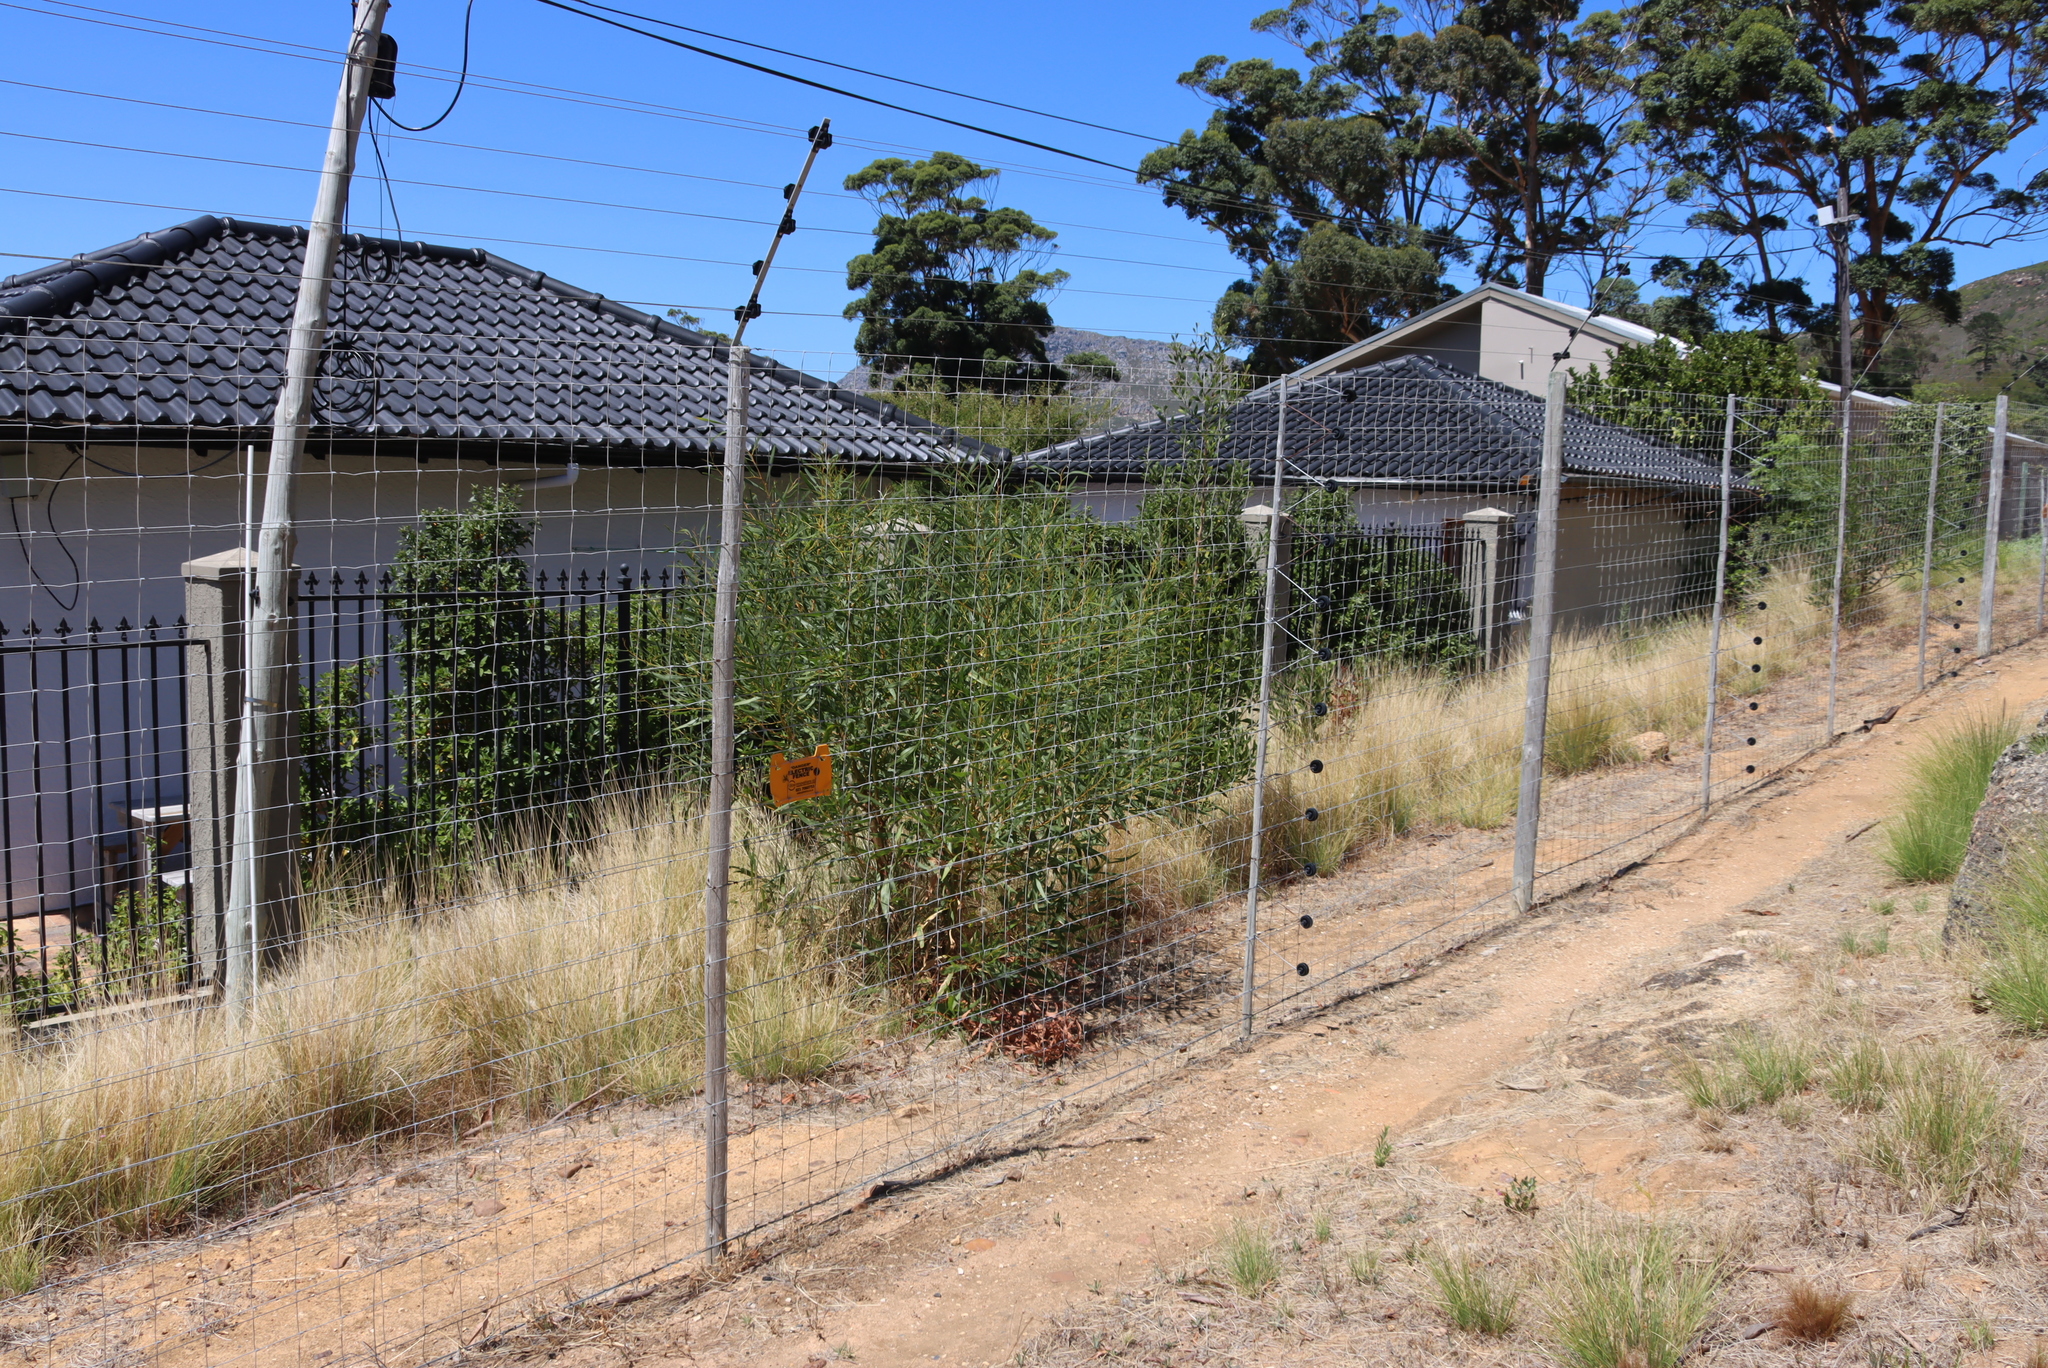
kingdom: Plantae
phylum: Tracheophyta
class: Magnoliopsida
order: Fabales
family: Fabaceae
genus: Acacia
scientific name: Acacia saligna
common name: Orange wattle
